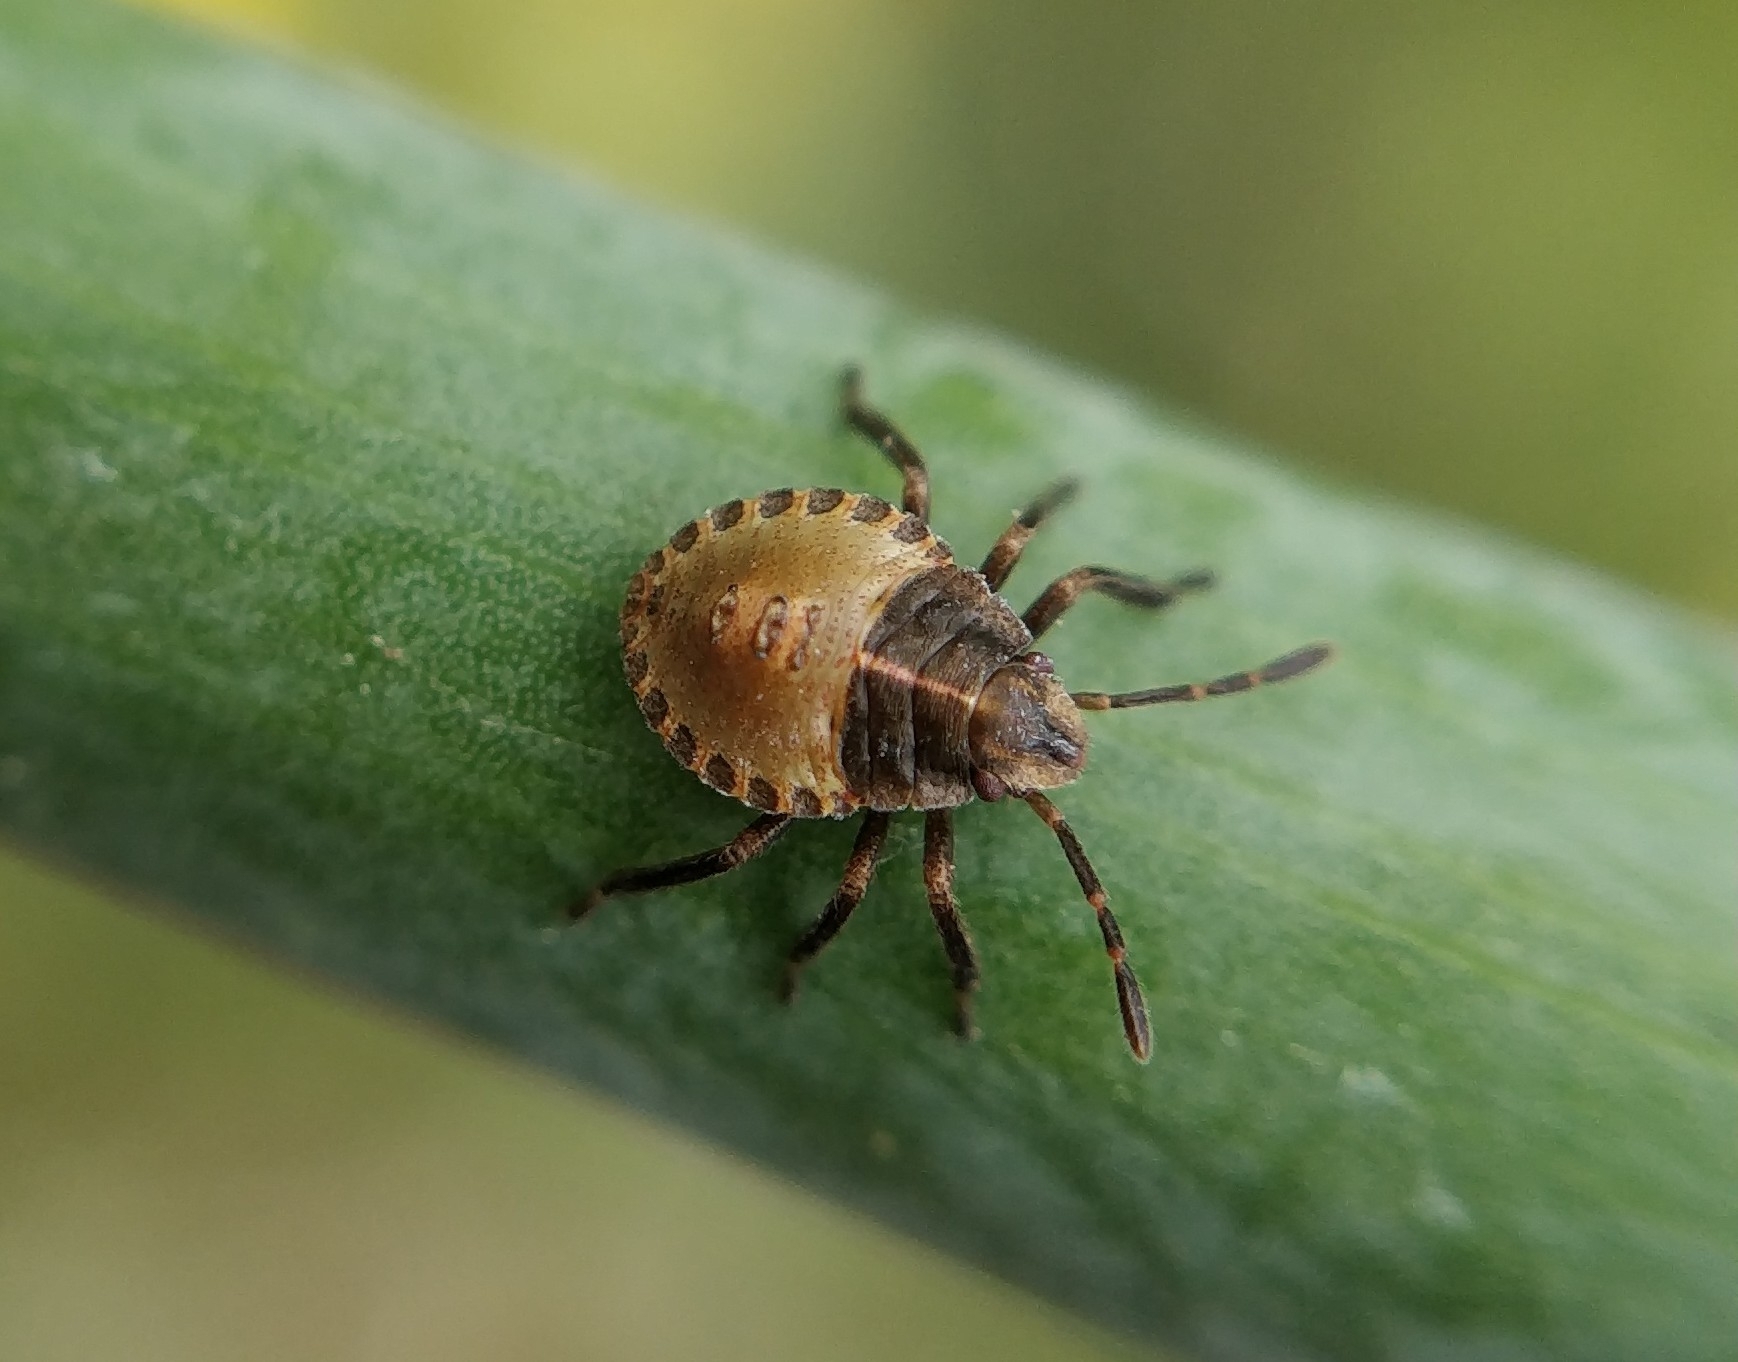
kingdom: Animalia
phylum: Arthropoda
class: Insecta
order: Hemiptera
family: Pentatomidae
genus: Graphosoma
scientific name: Graphosoma interruptum
